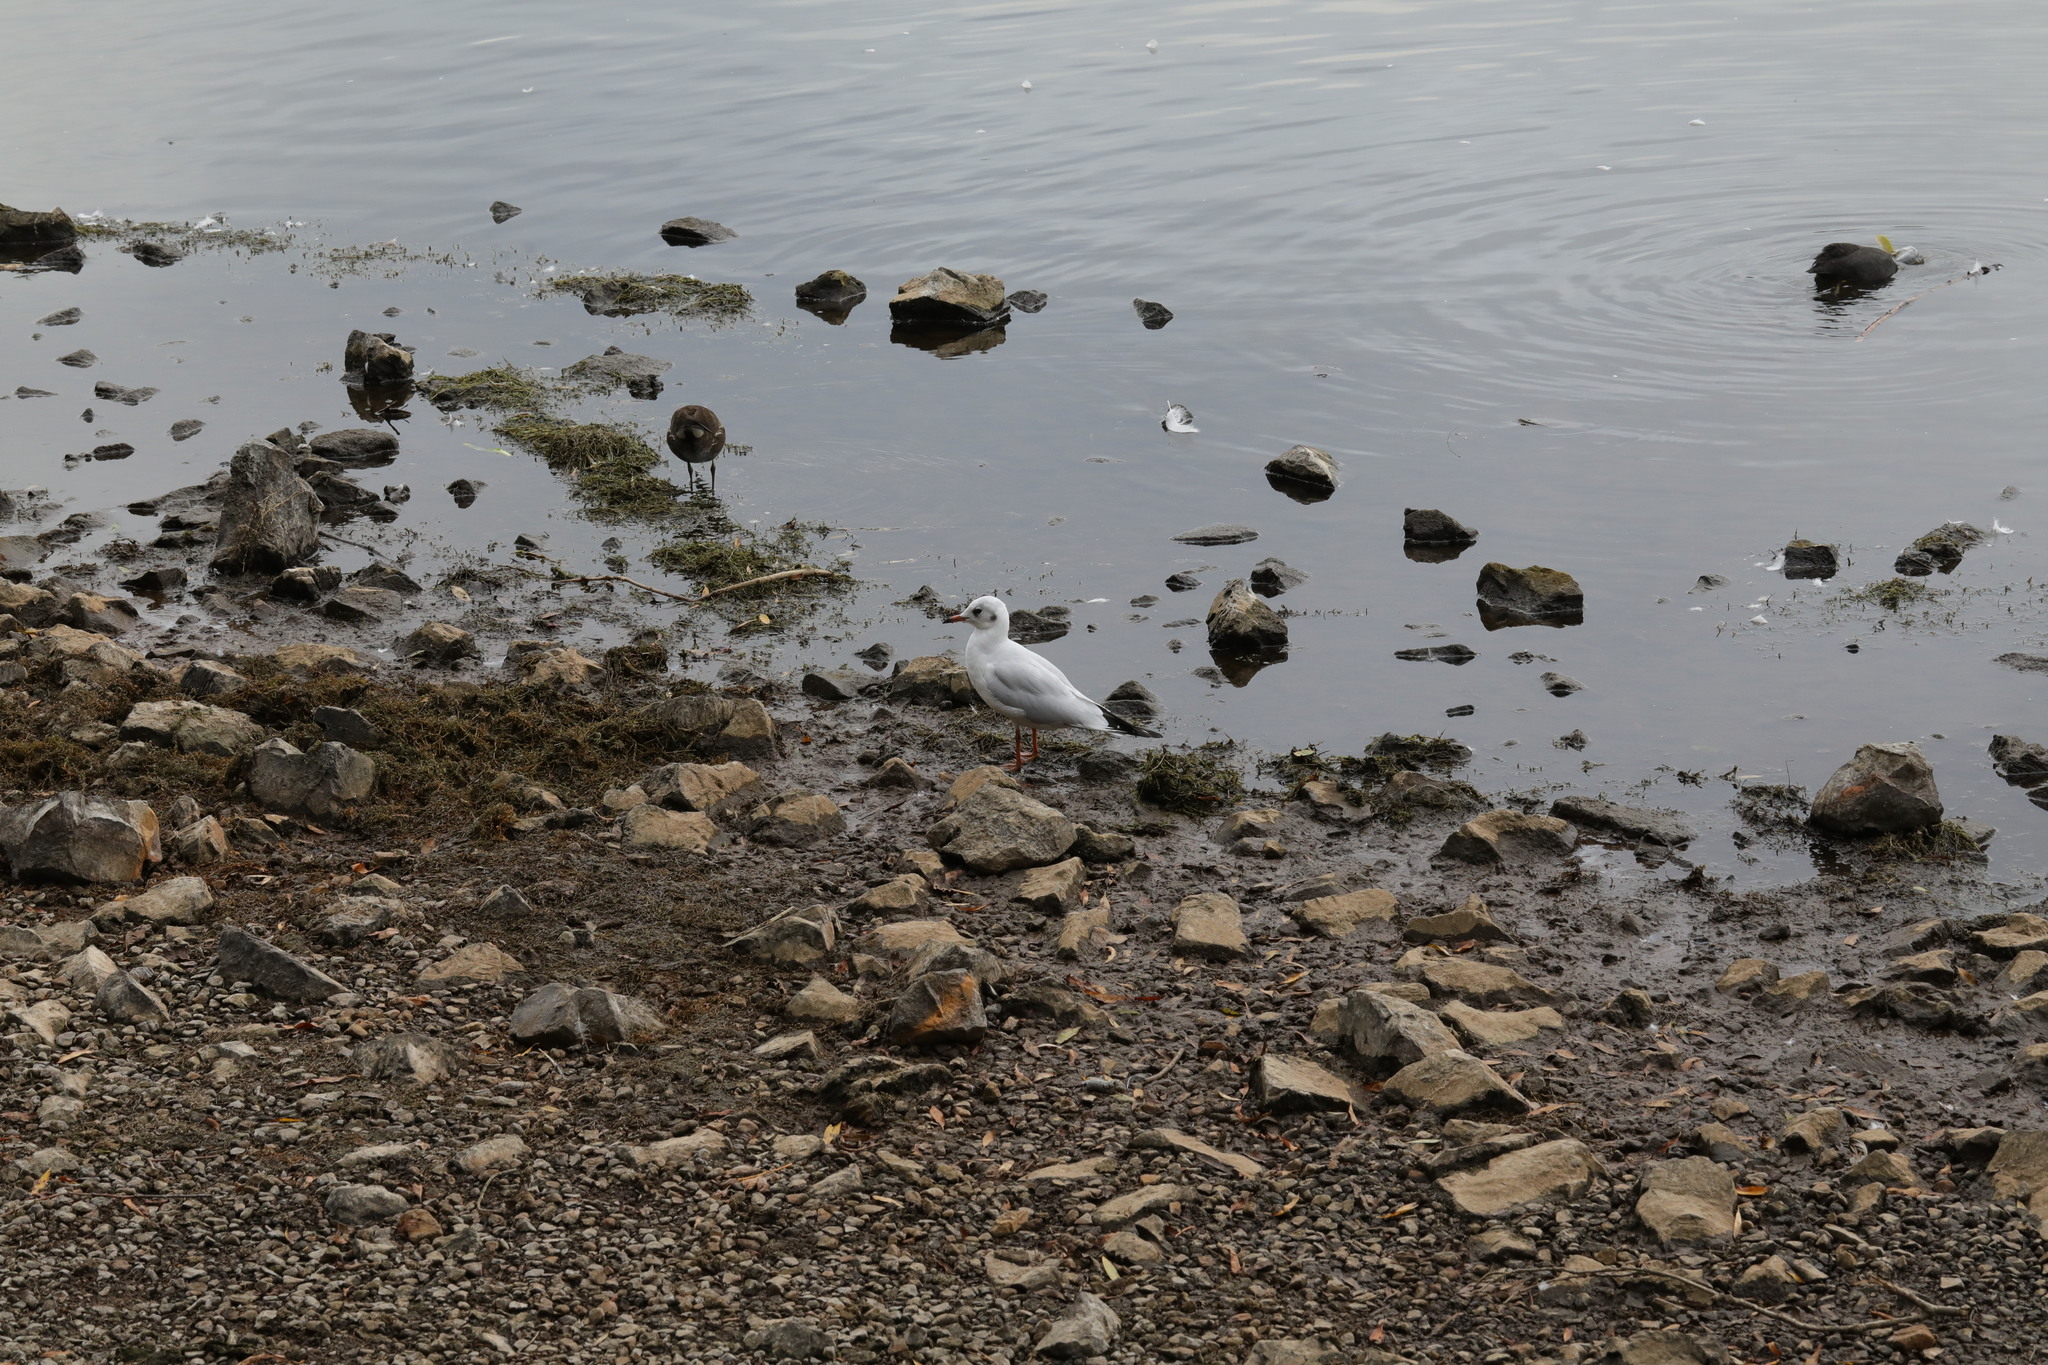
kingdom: Animalia
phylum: Chordata
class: Aves
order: Charadriiformes
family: Laridae
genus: Chroicocephalus
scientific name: Chroicocephalus ridibundus
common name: Black-headed gull
